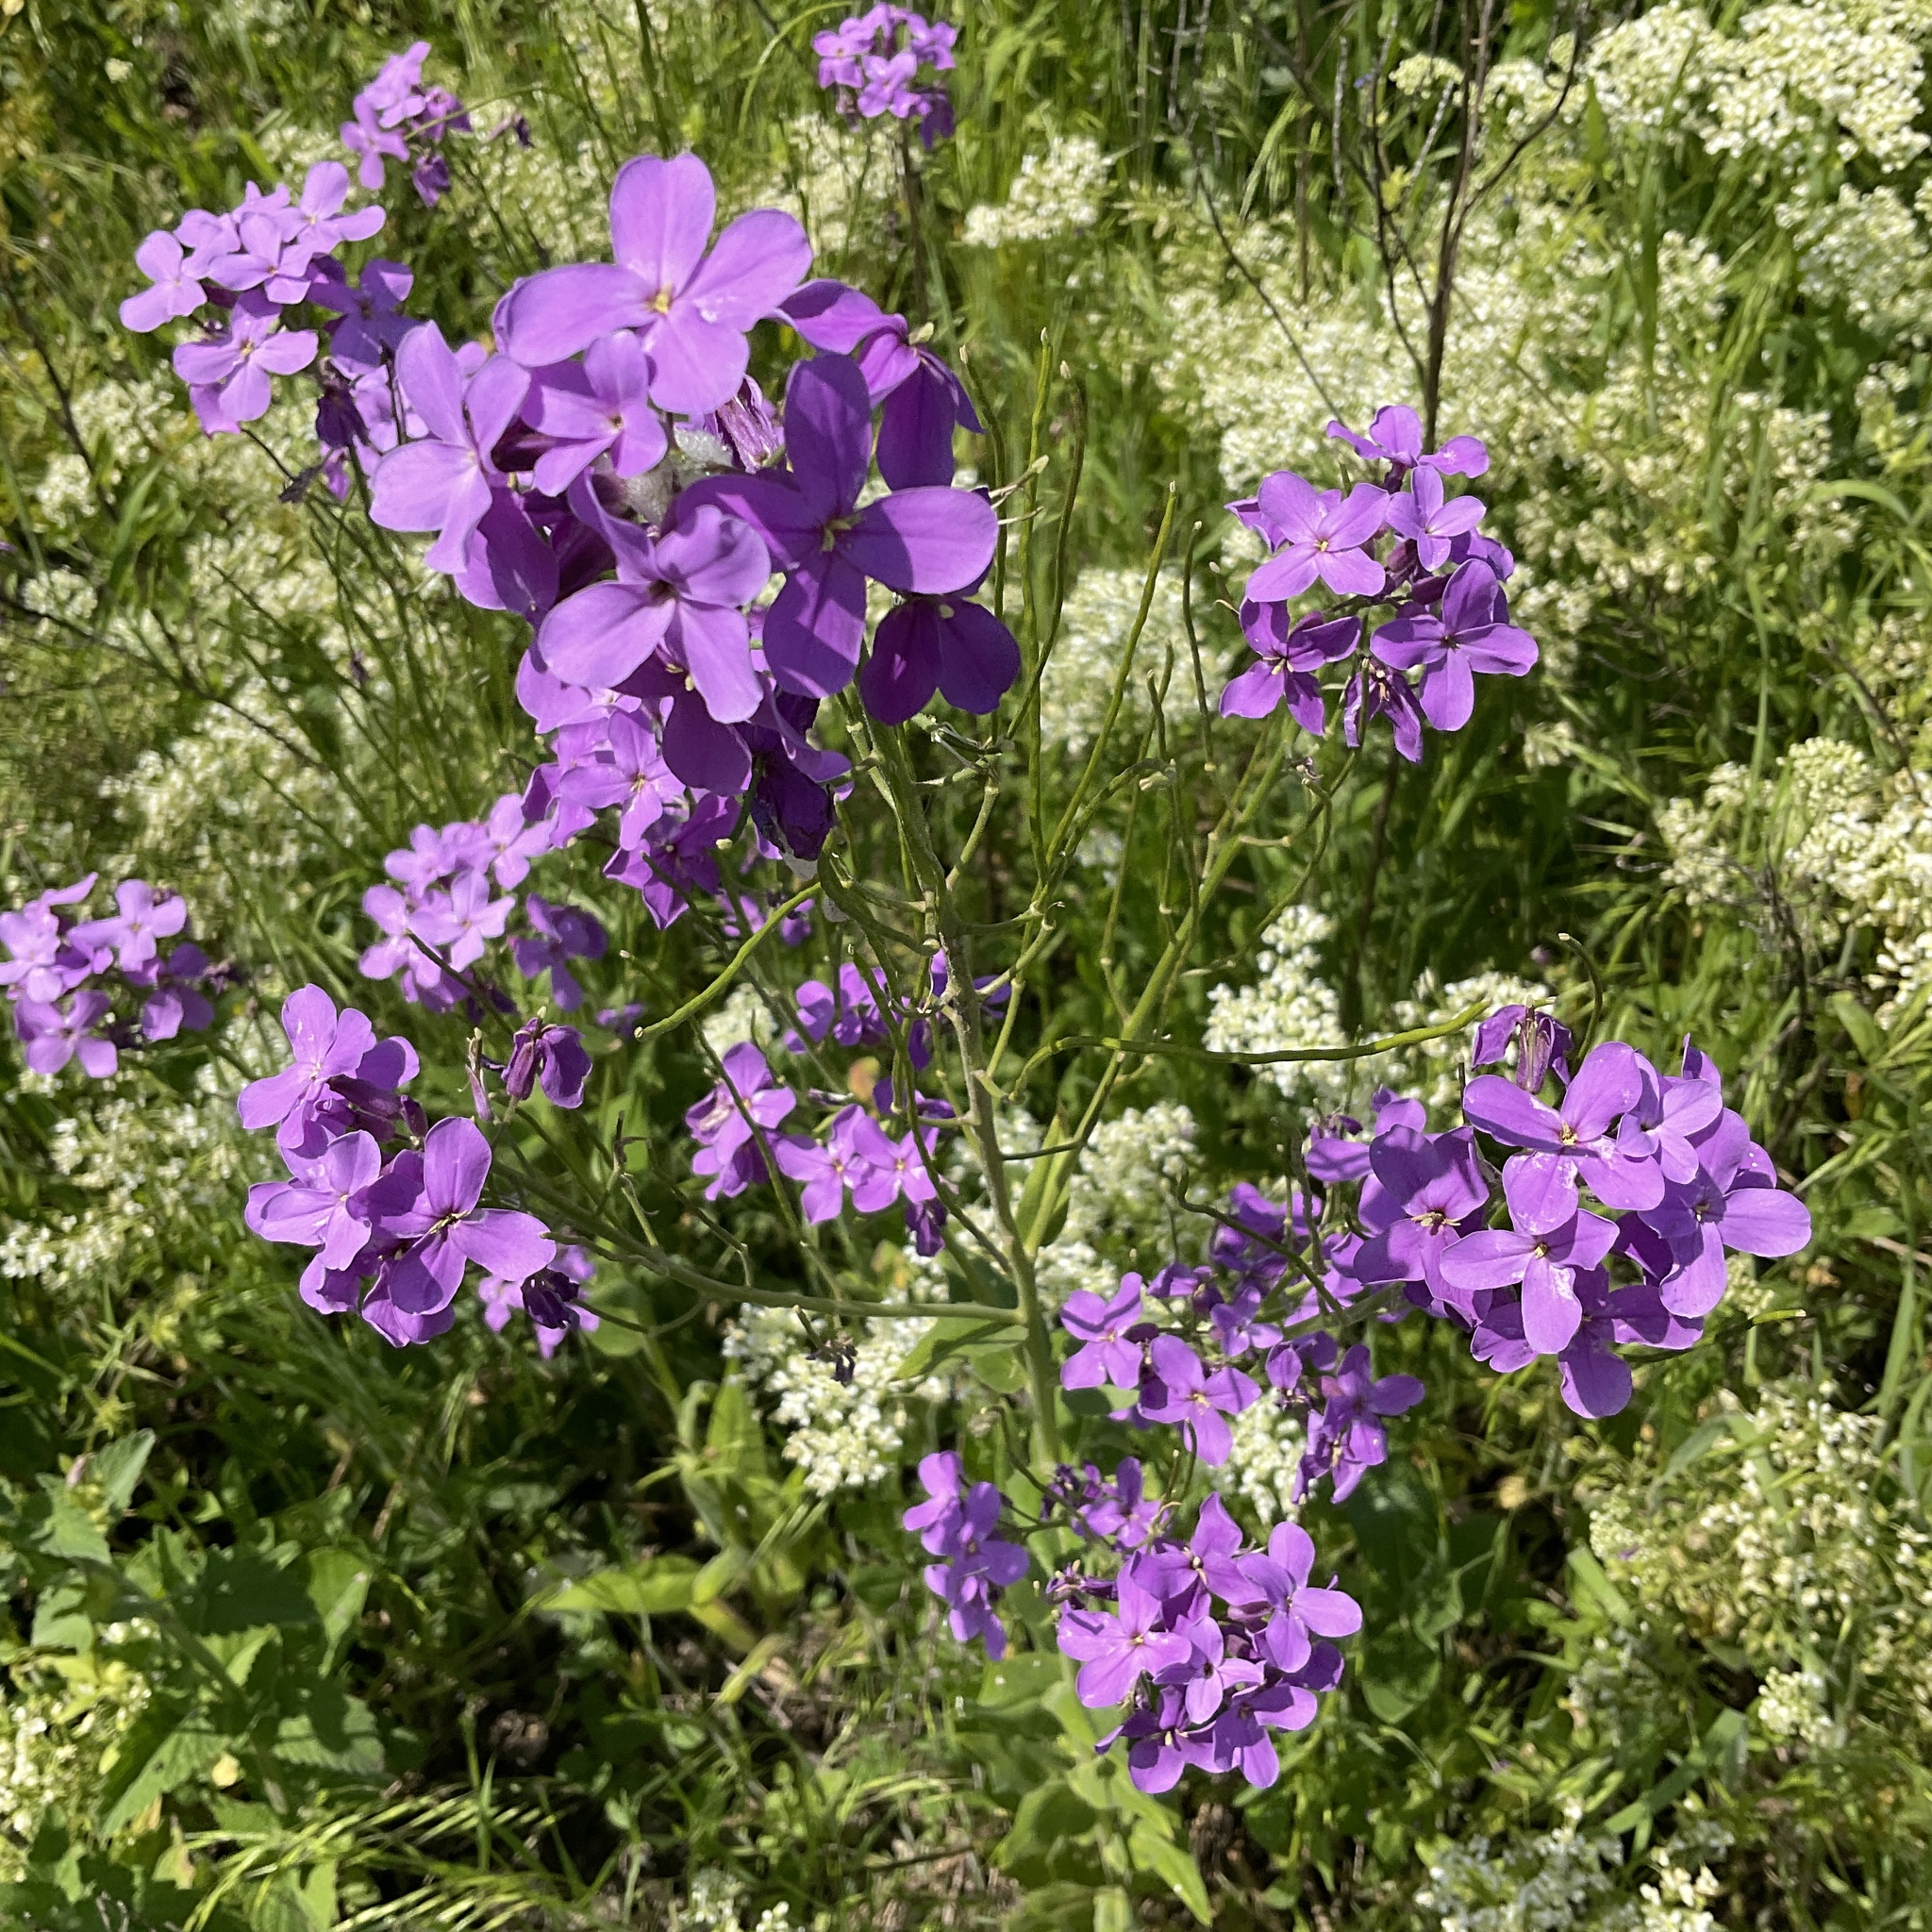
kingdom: Plantae
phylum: Tracheophyta
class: Magnoliopsida
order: Brassicales
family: Brassicaceae
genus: Hesperis
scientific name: Hesperis matronalis
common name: Dame's-violet
